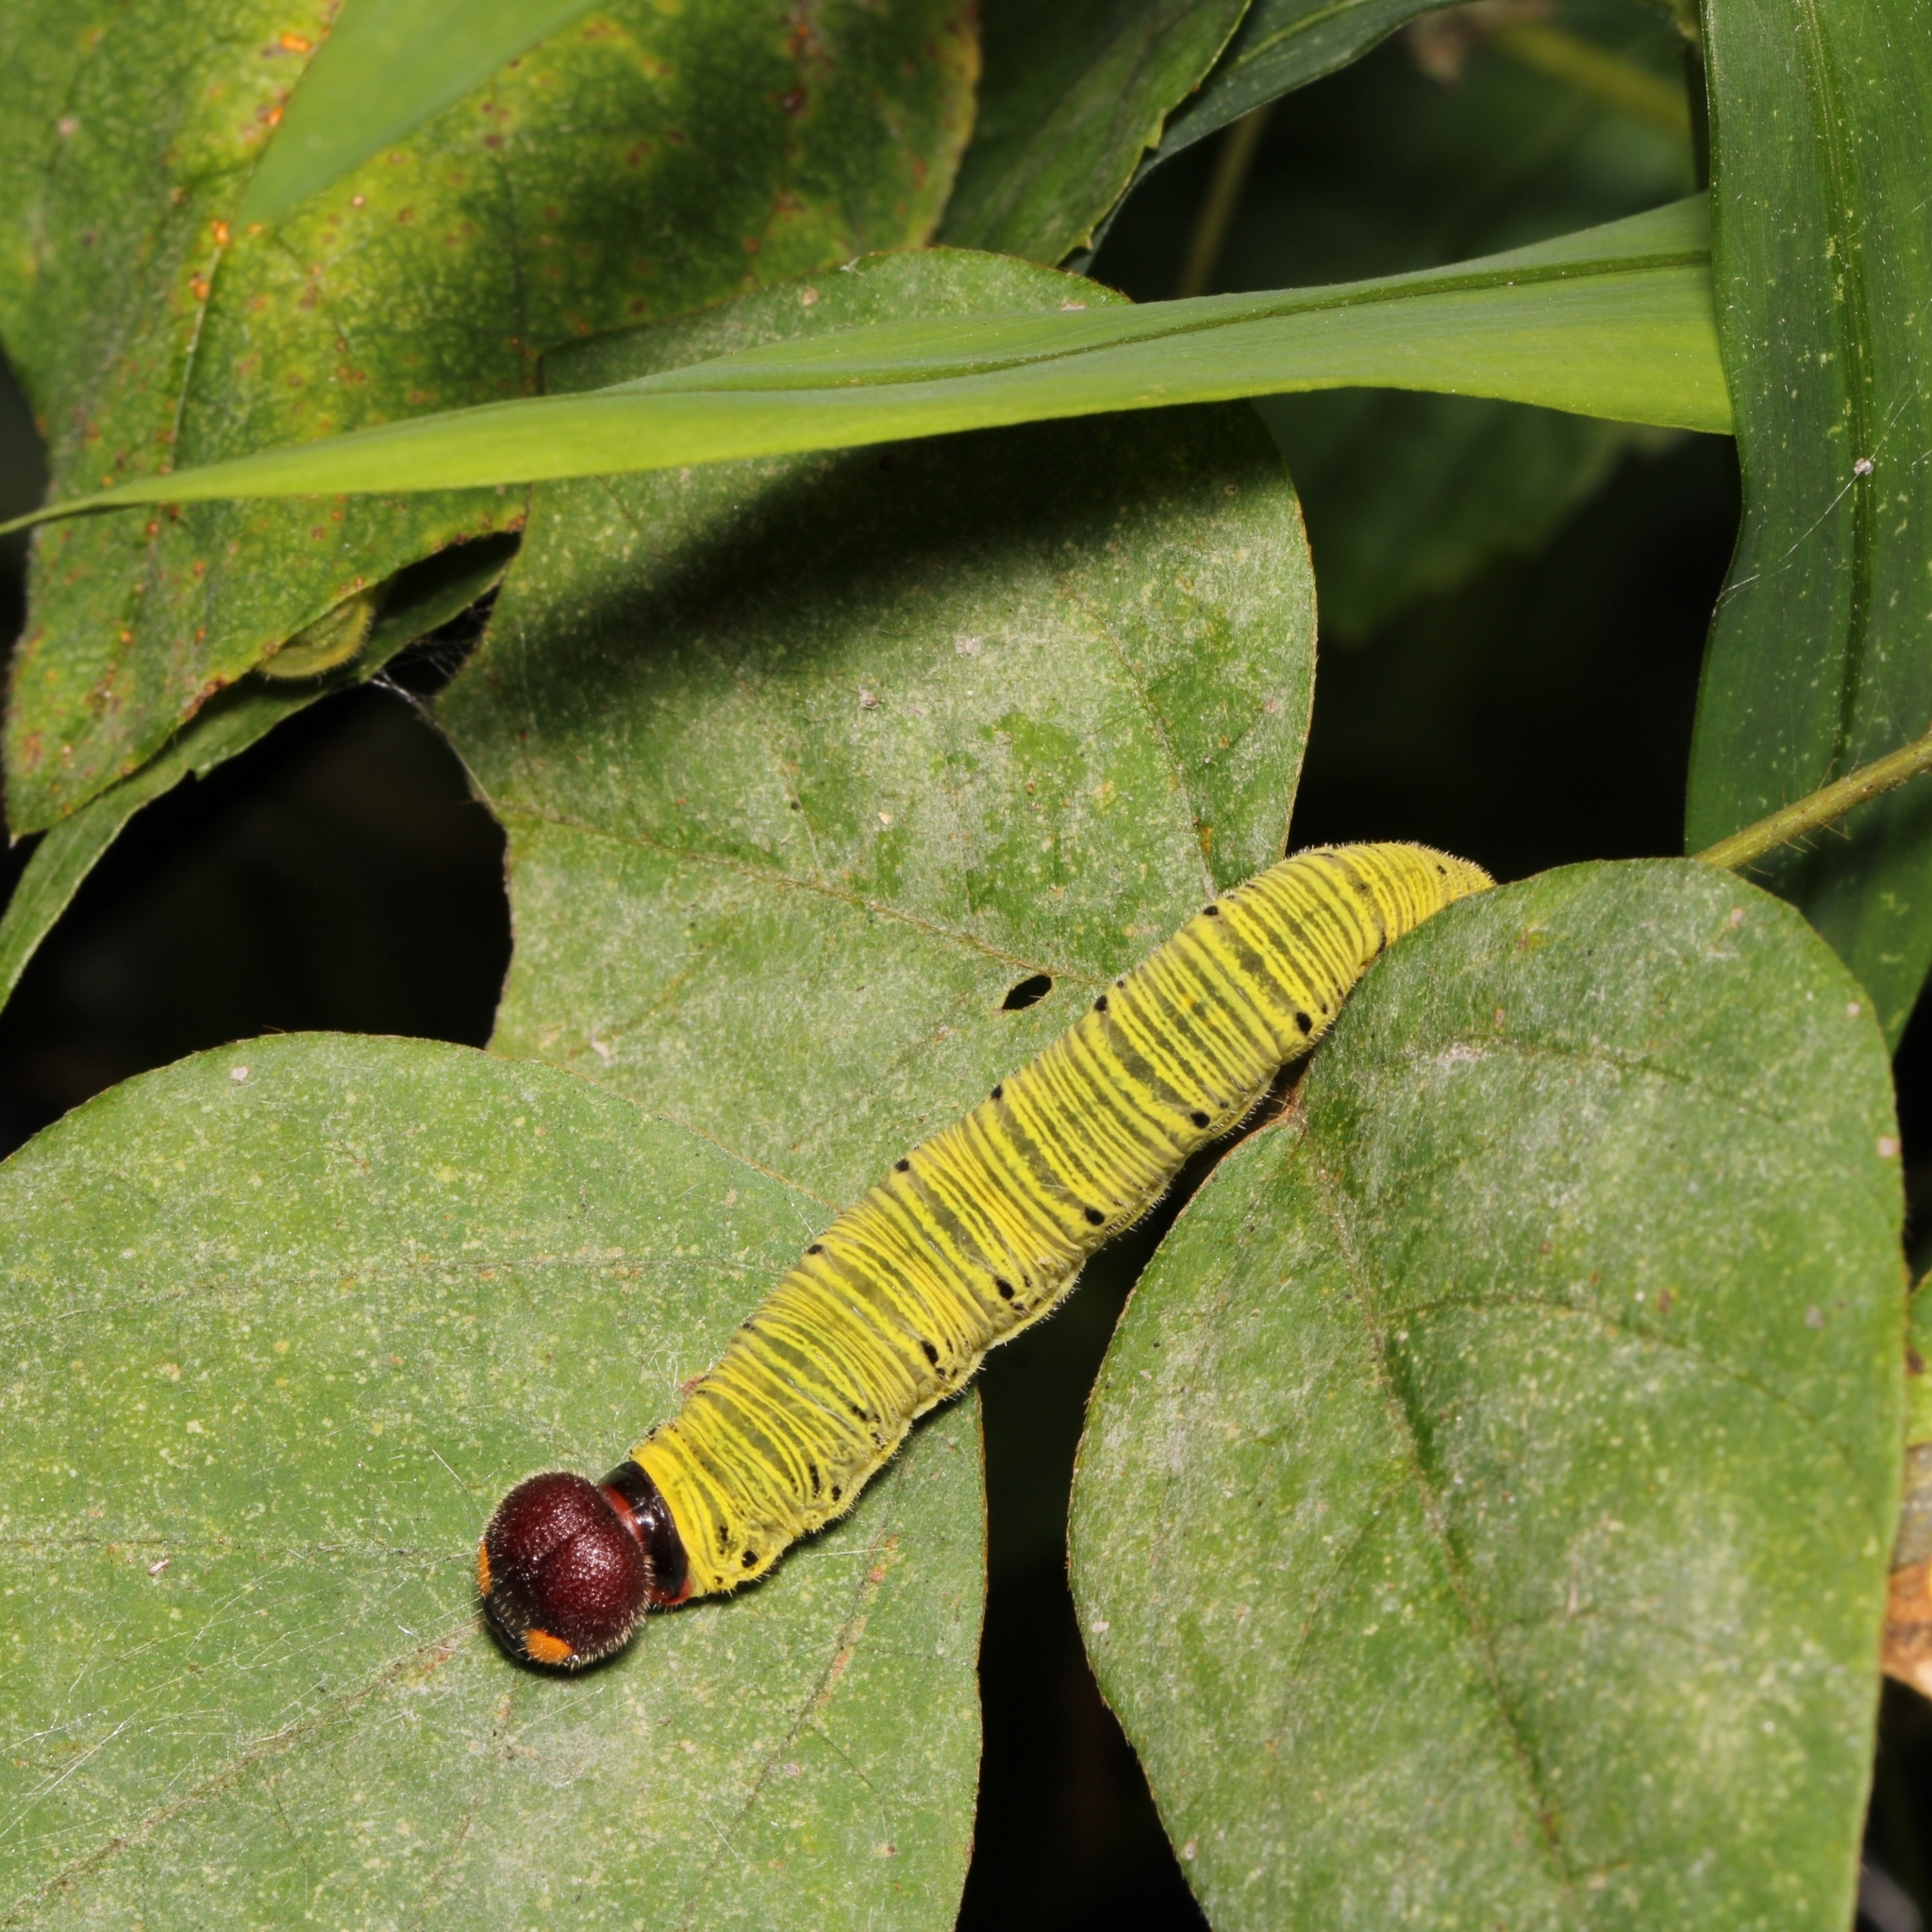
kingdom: Animalia
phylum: Arthropoda
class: Insecta
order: Lepidoptera
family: Hesperiidae
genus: Epargyreus
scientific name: Epargyreus clarus
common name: Silver-spotted skipper
